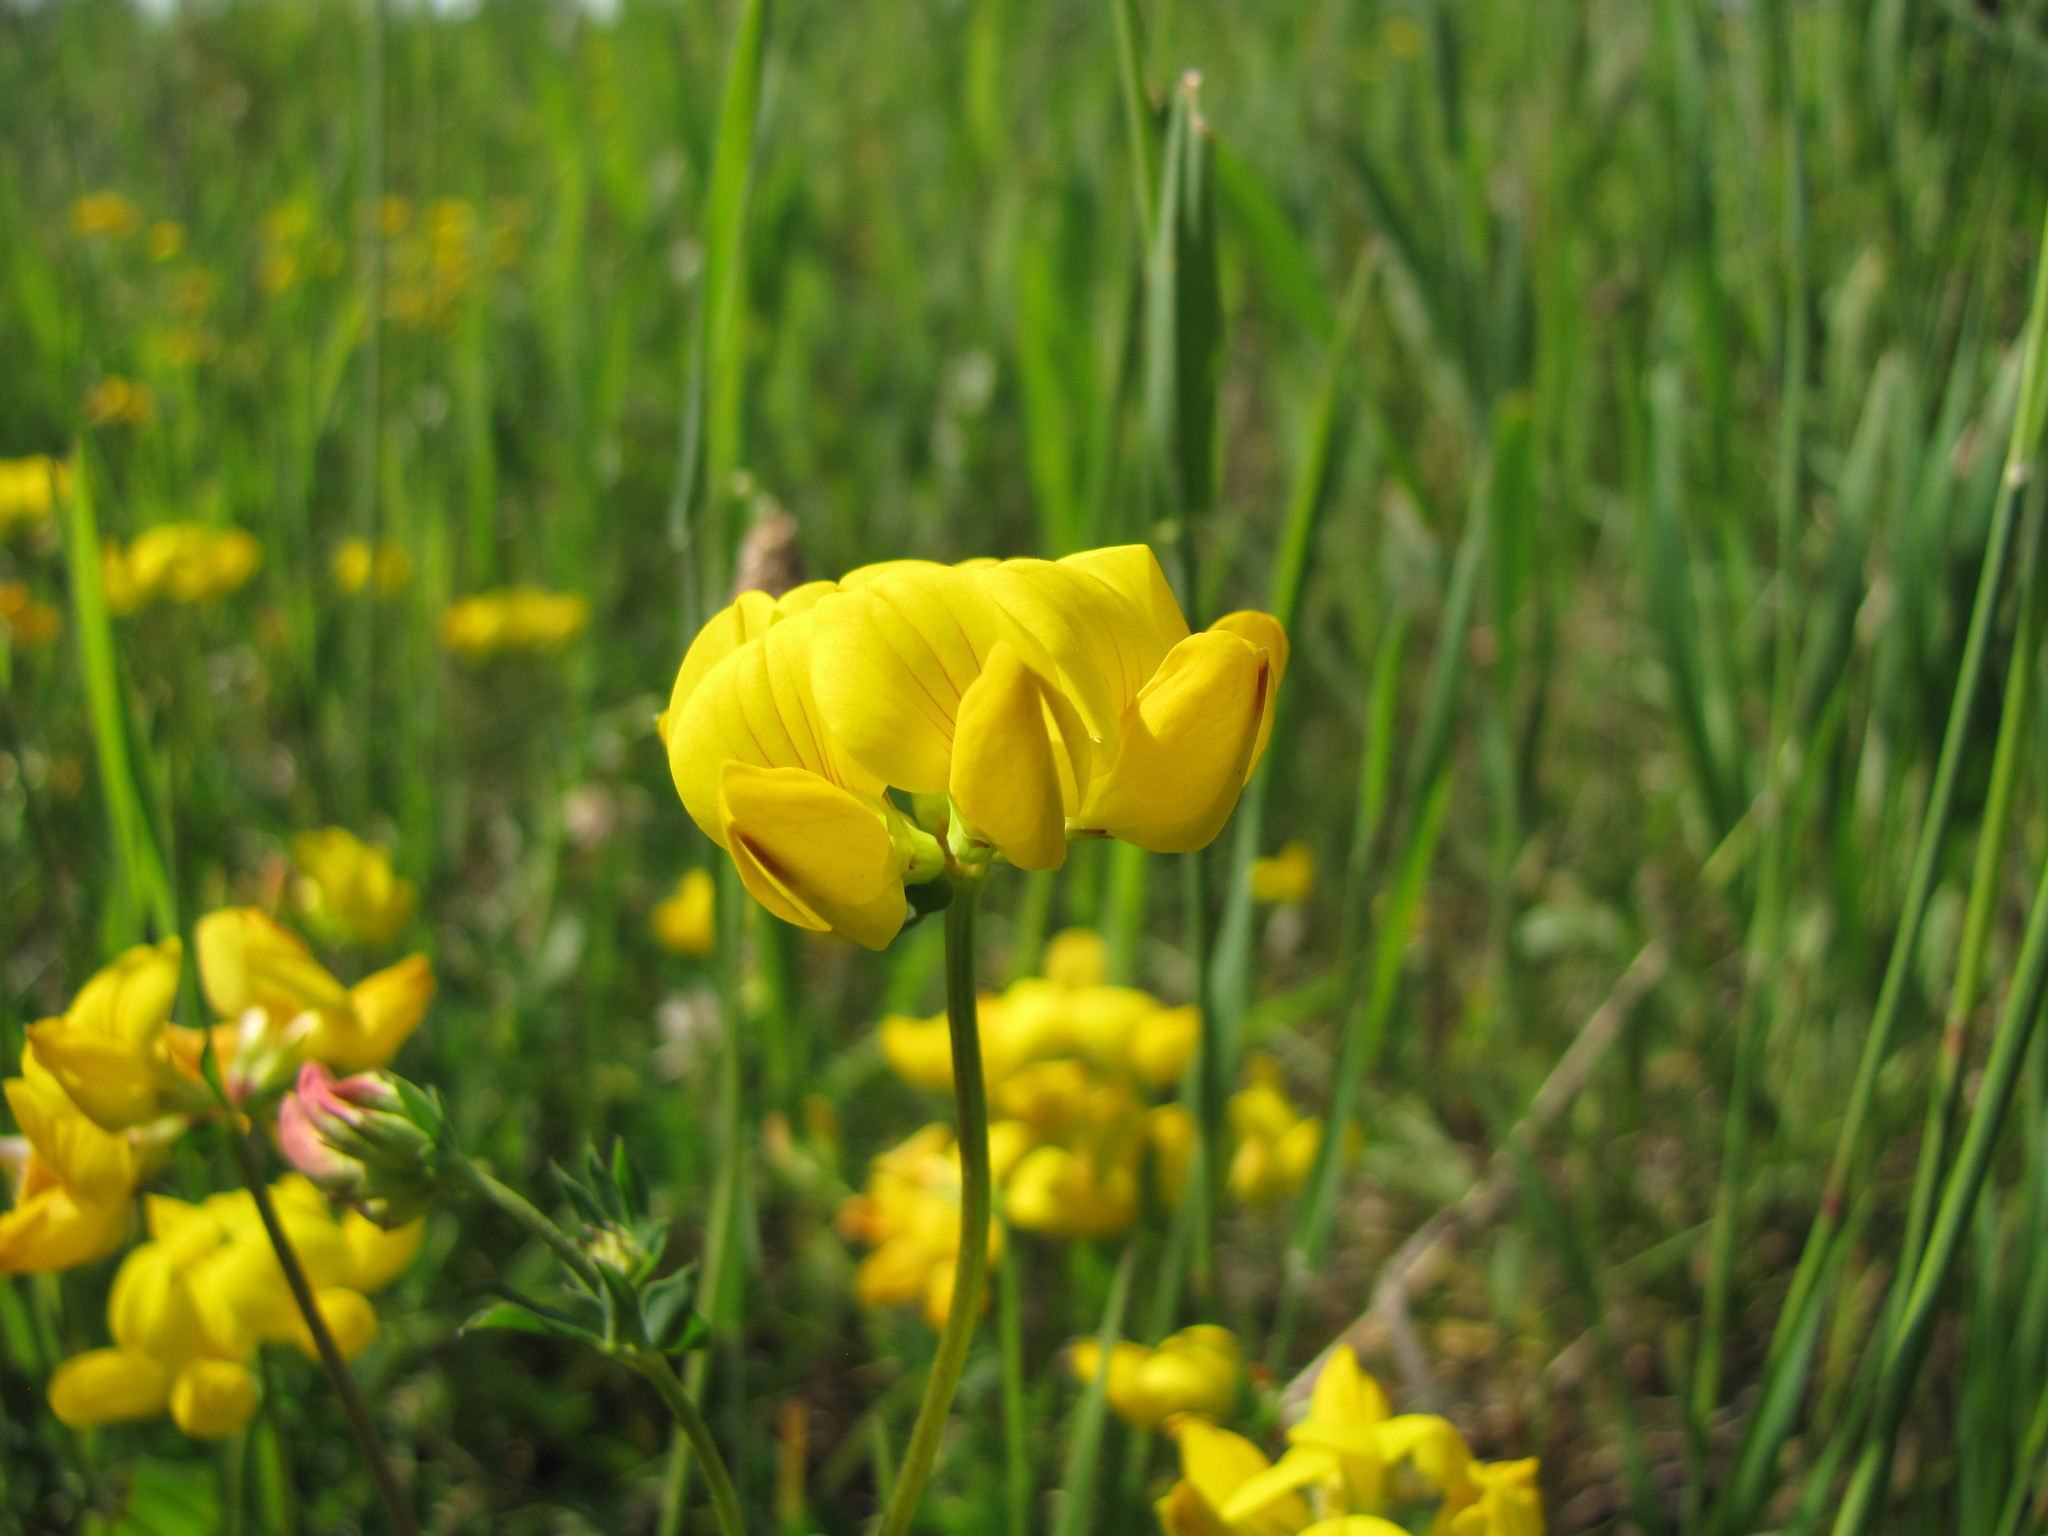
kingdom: Plantae
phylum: Tracheophyta
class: Magnoliopsida
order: Fabales
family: Fabaceae
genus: Lotus
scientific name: Lotus corniculatus
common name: Common bird's-foot-trefoil
